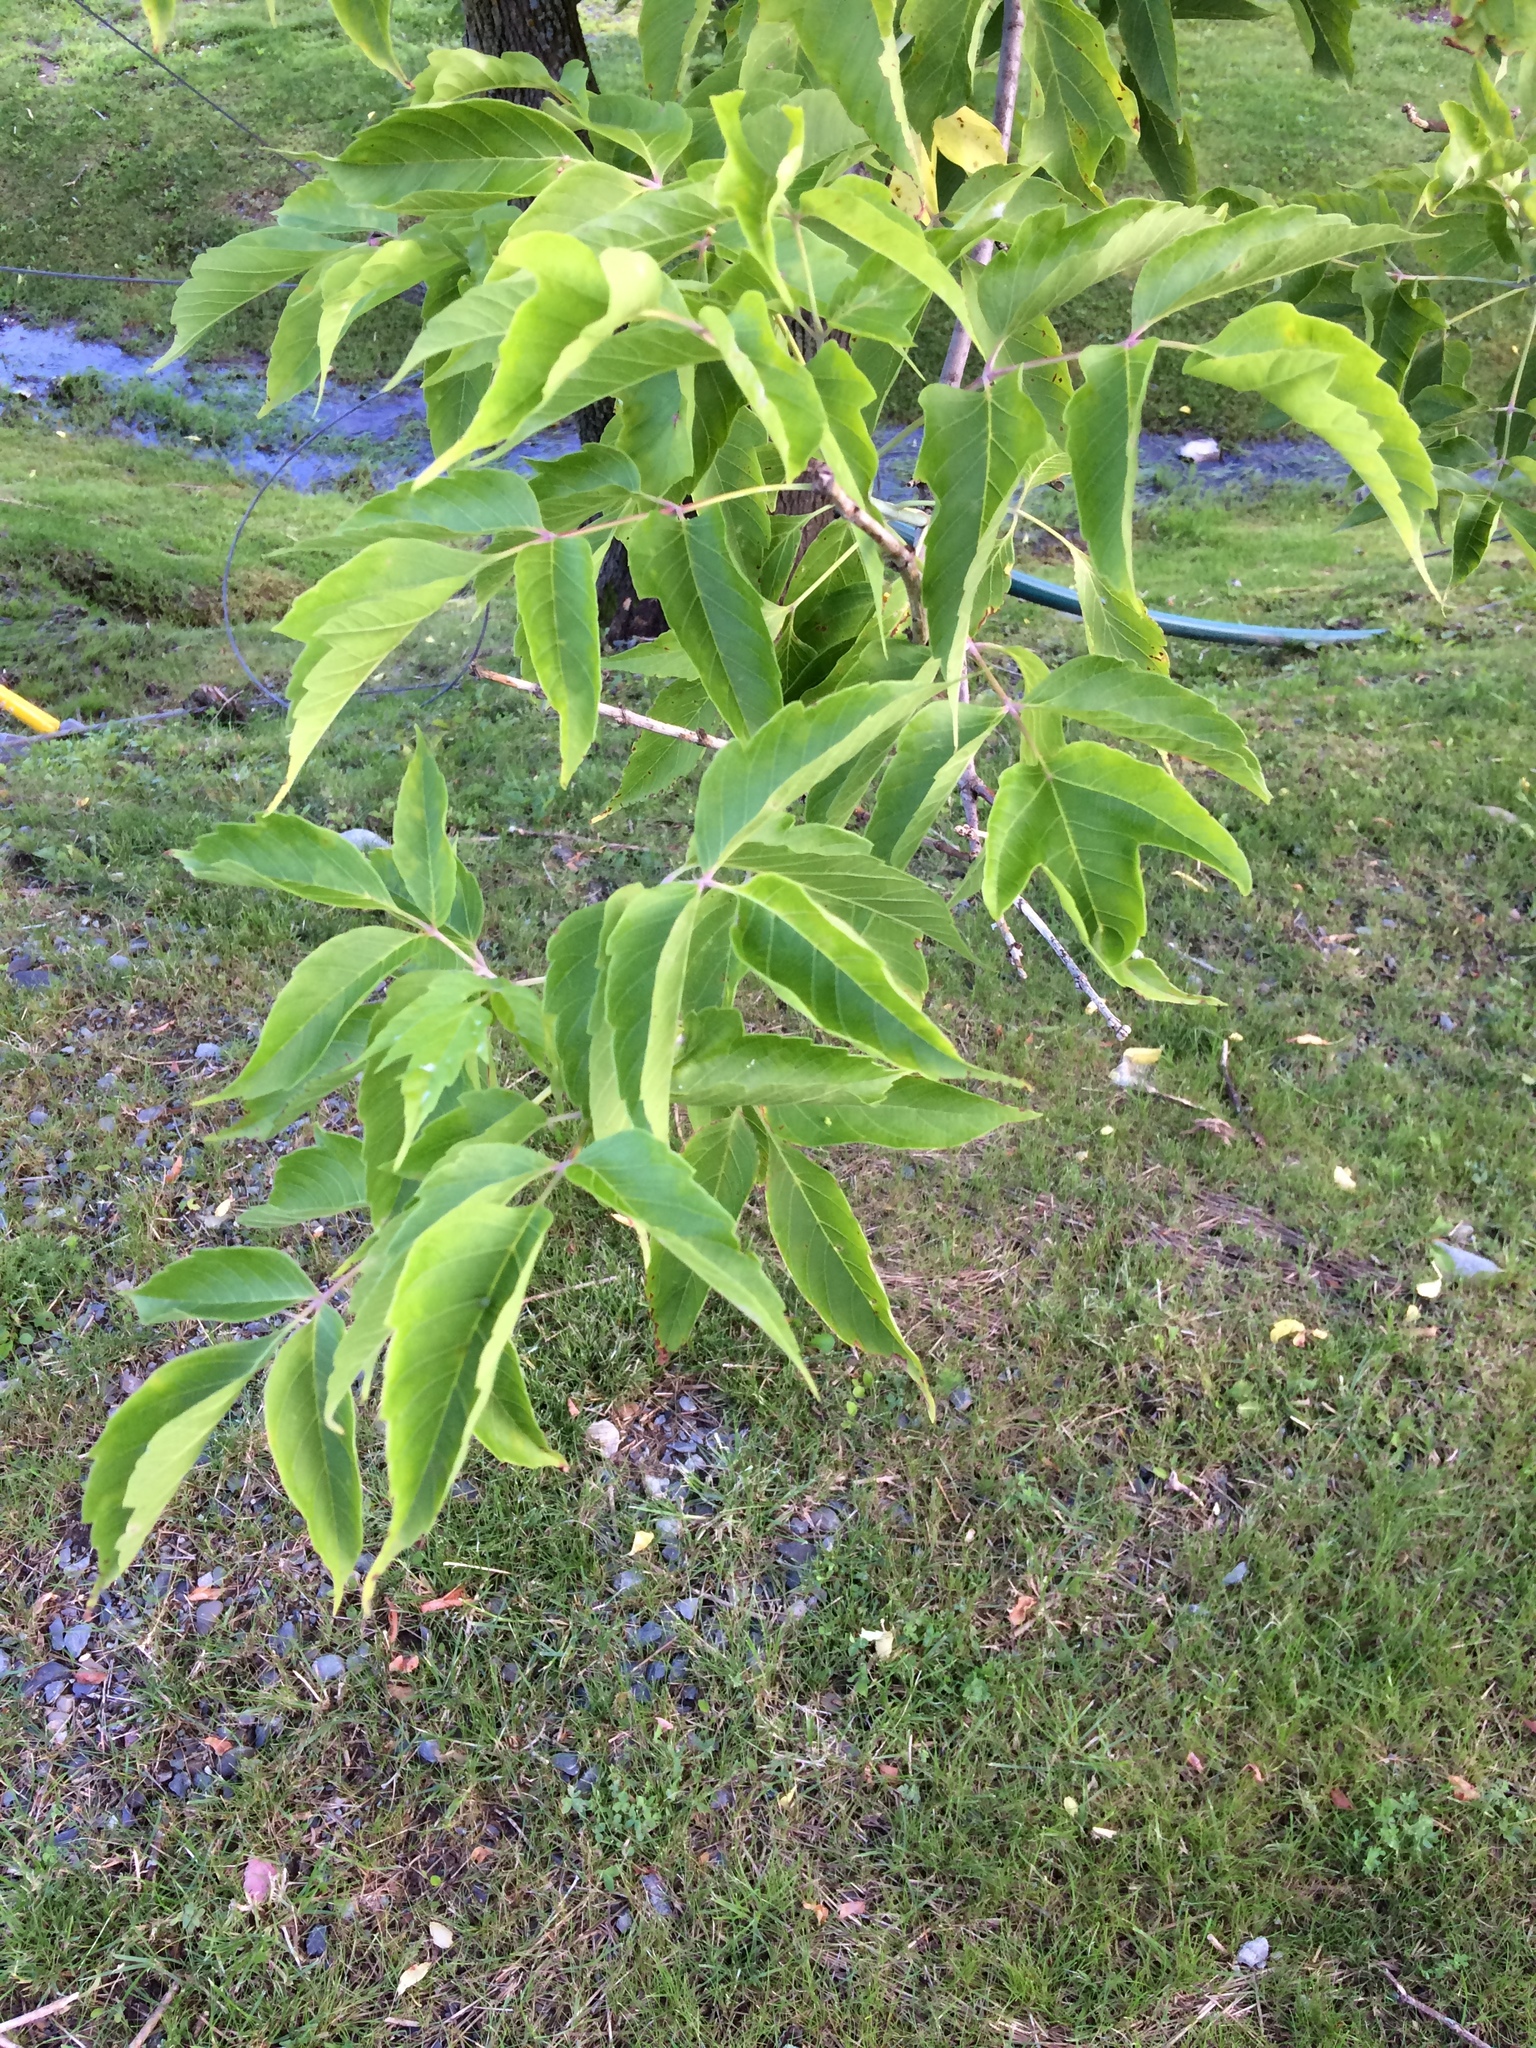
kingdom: Plantae
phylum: Tracheophyta
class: Magnoliopsida
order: Sapindales
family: Sapindaceae
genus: Acer
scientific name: Acer negundo
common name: Ashleaf maple
